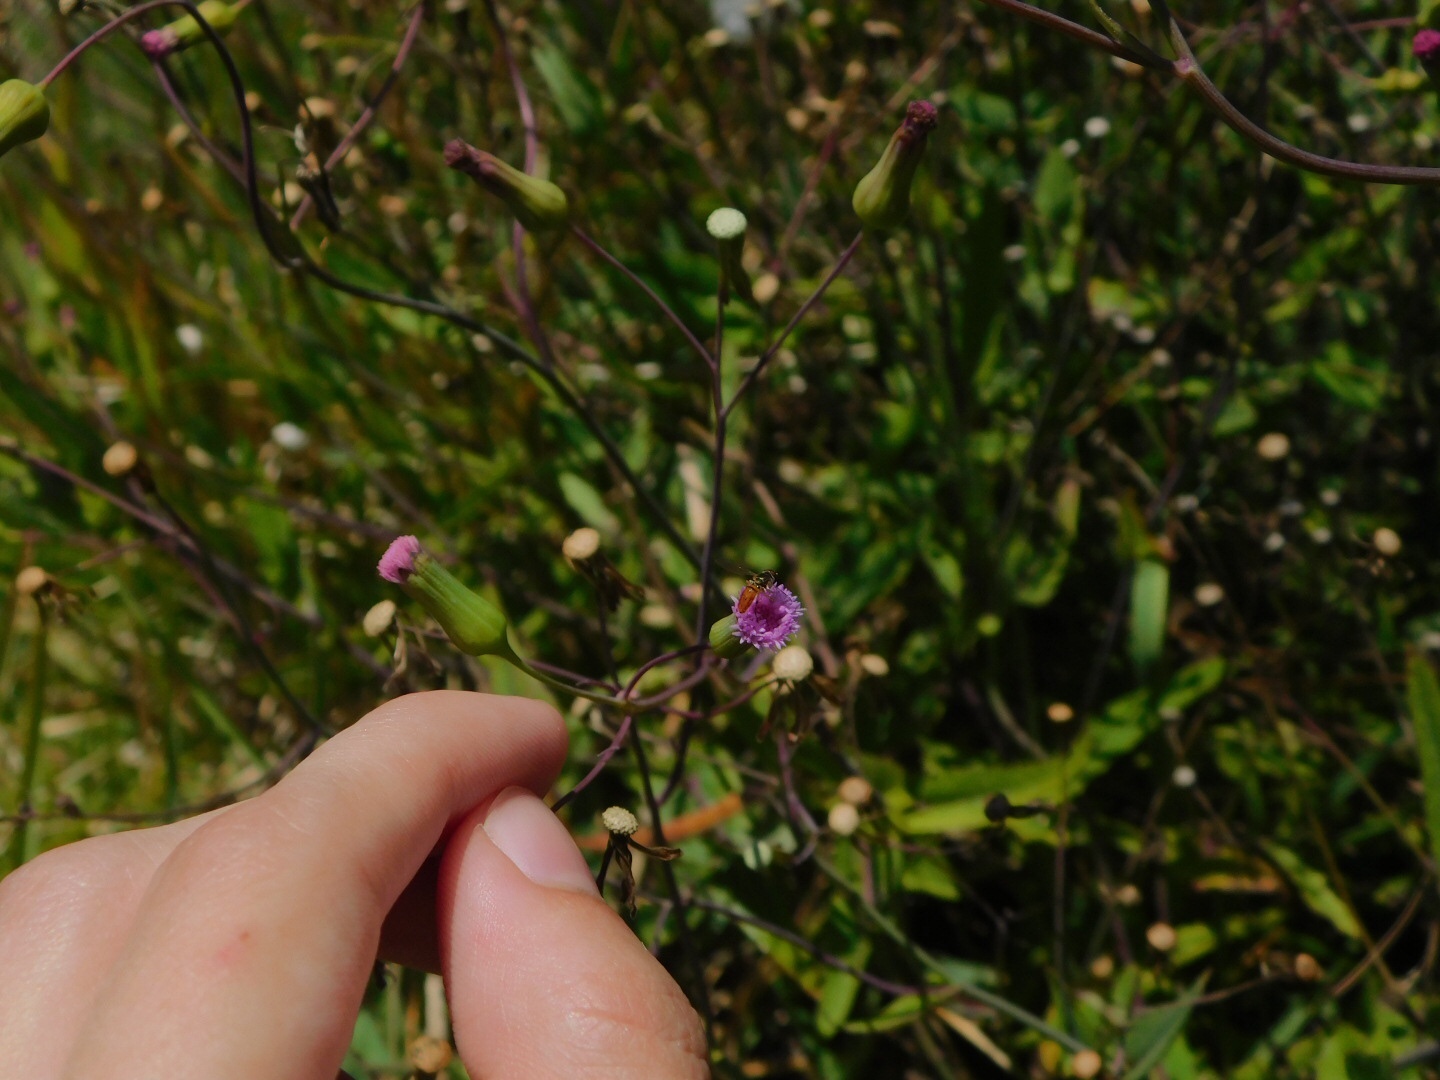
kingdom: Animalia
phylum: Arthropoda
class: Insecta
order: Diptera
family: Syrphidae
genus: Toxomerus
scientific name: Toxomerus boscii
